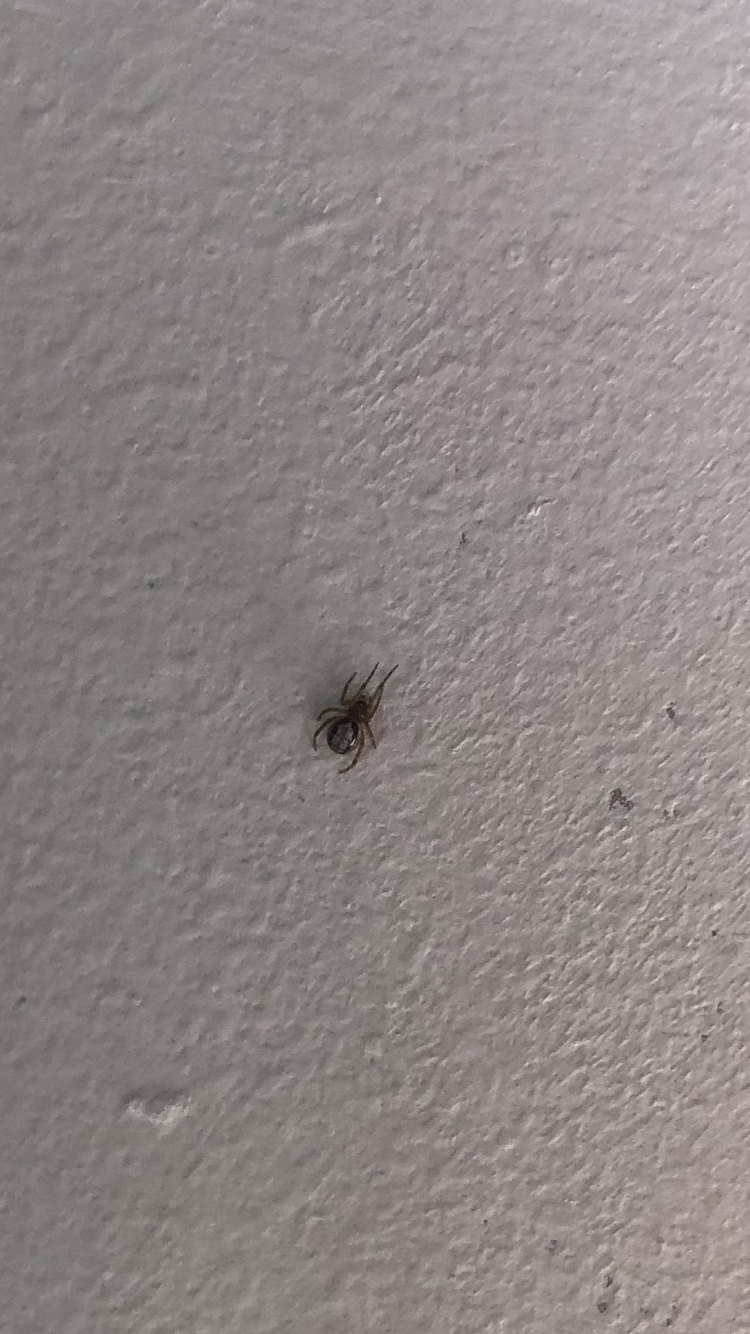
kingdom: Animalia
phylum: Arthropoda
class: Arachnida
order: Araneae
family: Theridiidae
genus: Steatoda
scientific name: Steatoda nobilis
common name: Cobweb weaver
